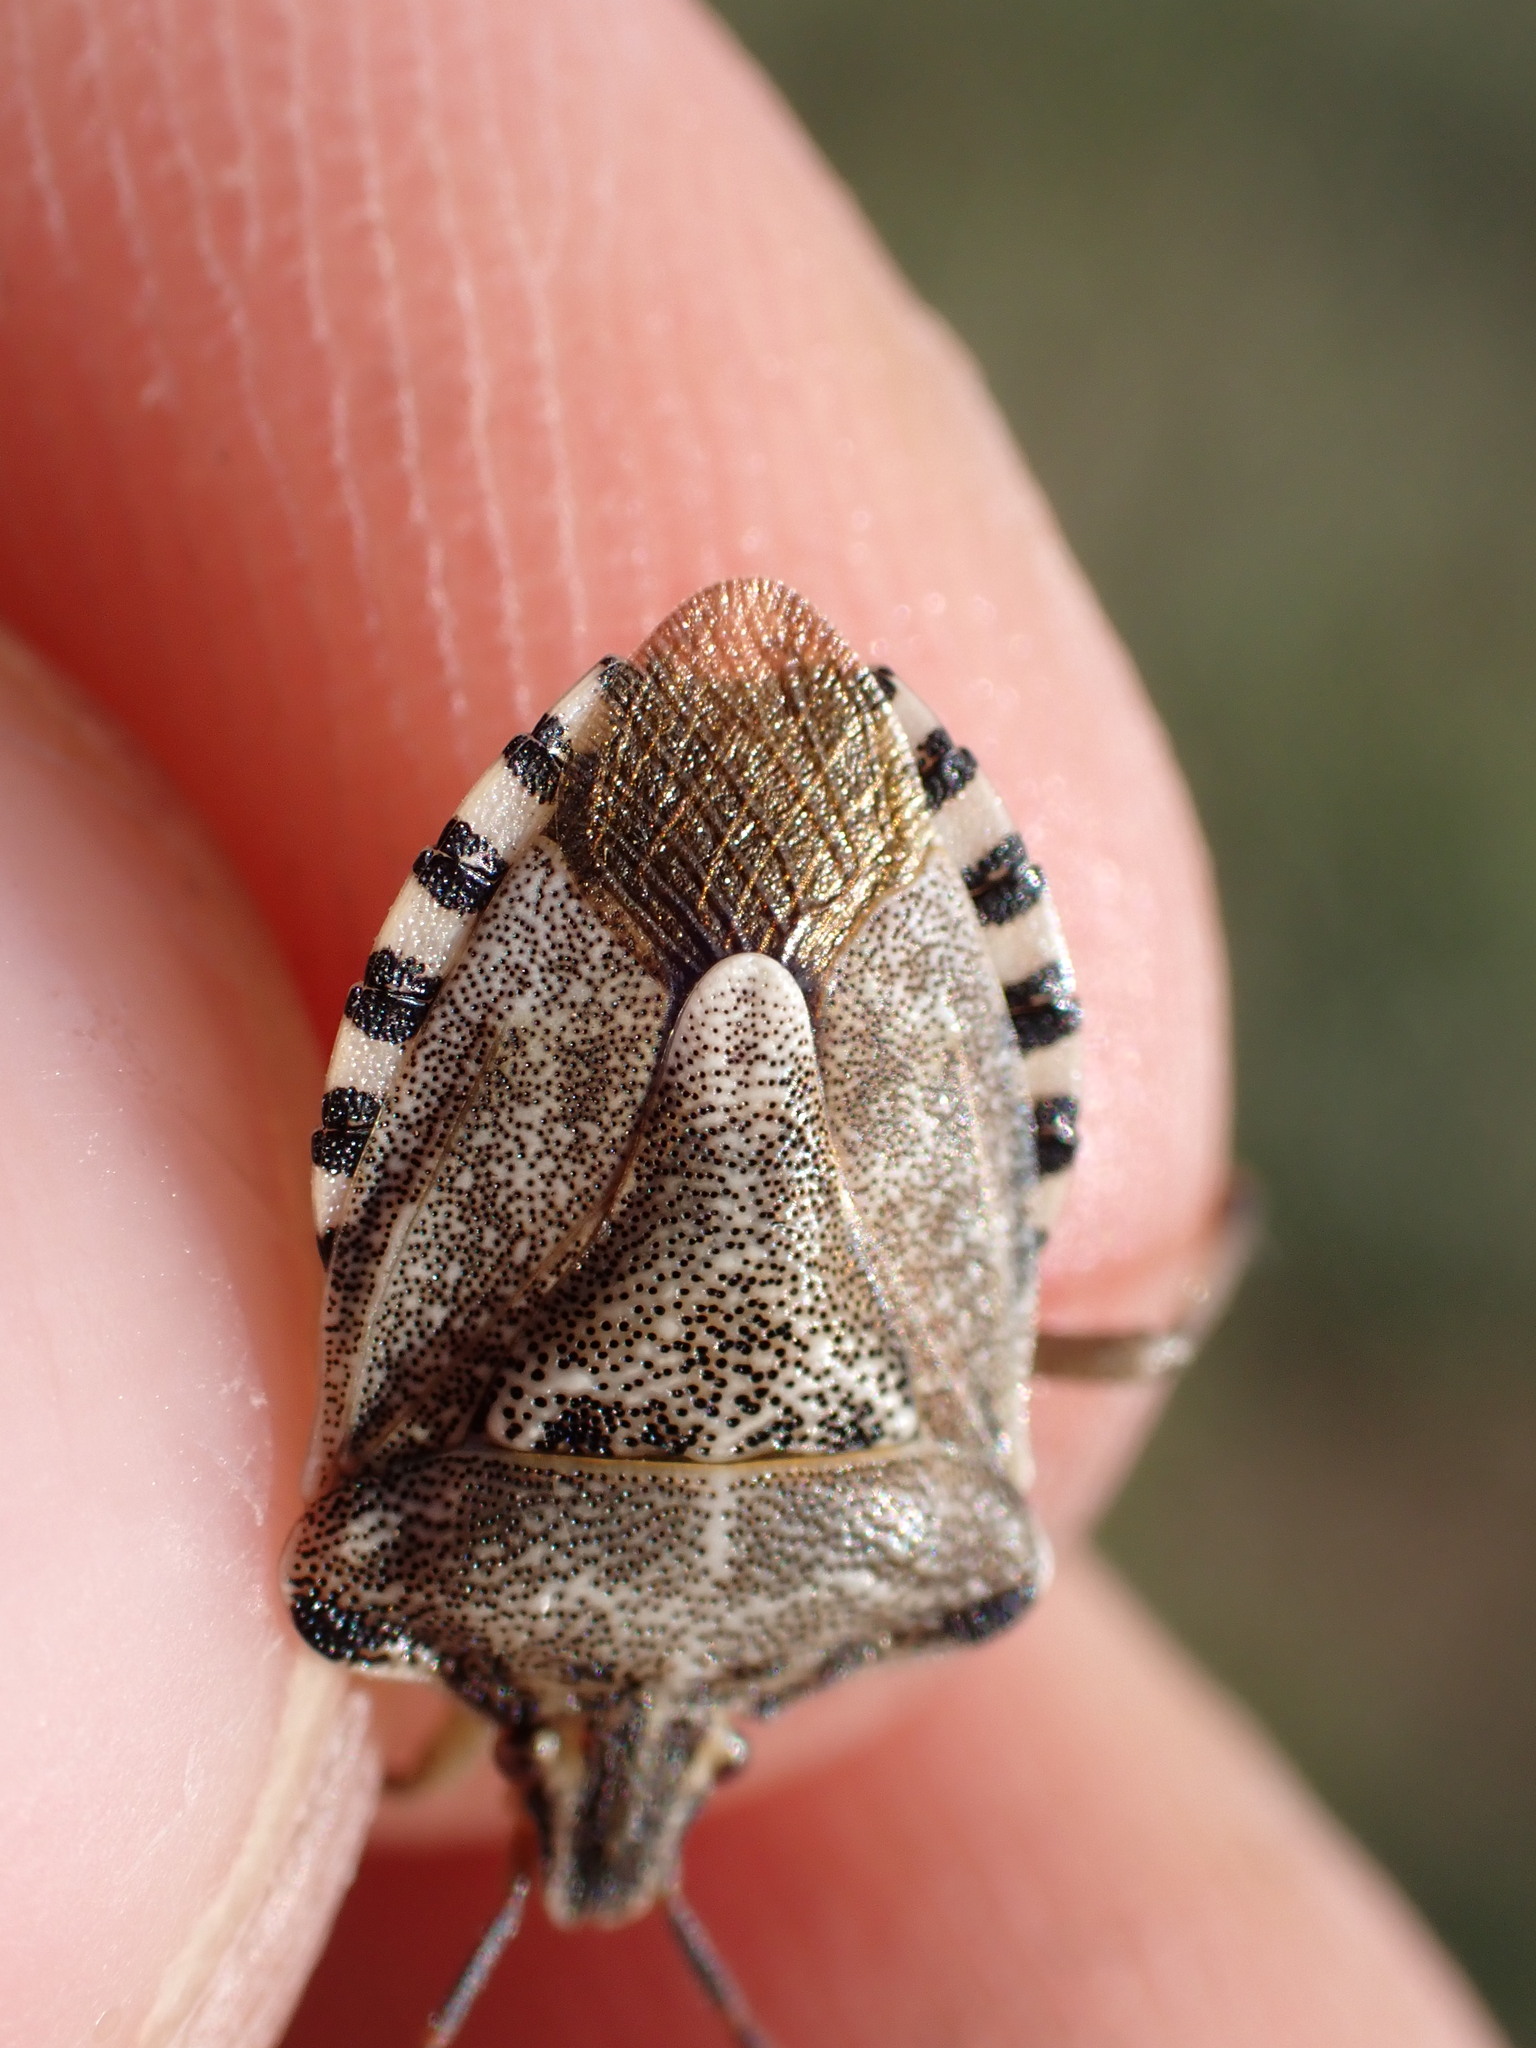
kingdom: Animalia
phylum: Arthropoda
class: Insecta
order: Hemiptera
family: Miridae
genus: Orthops
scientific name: Orthops kalmii
